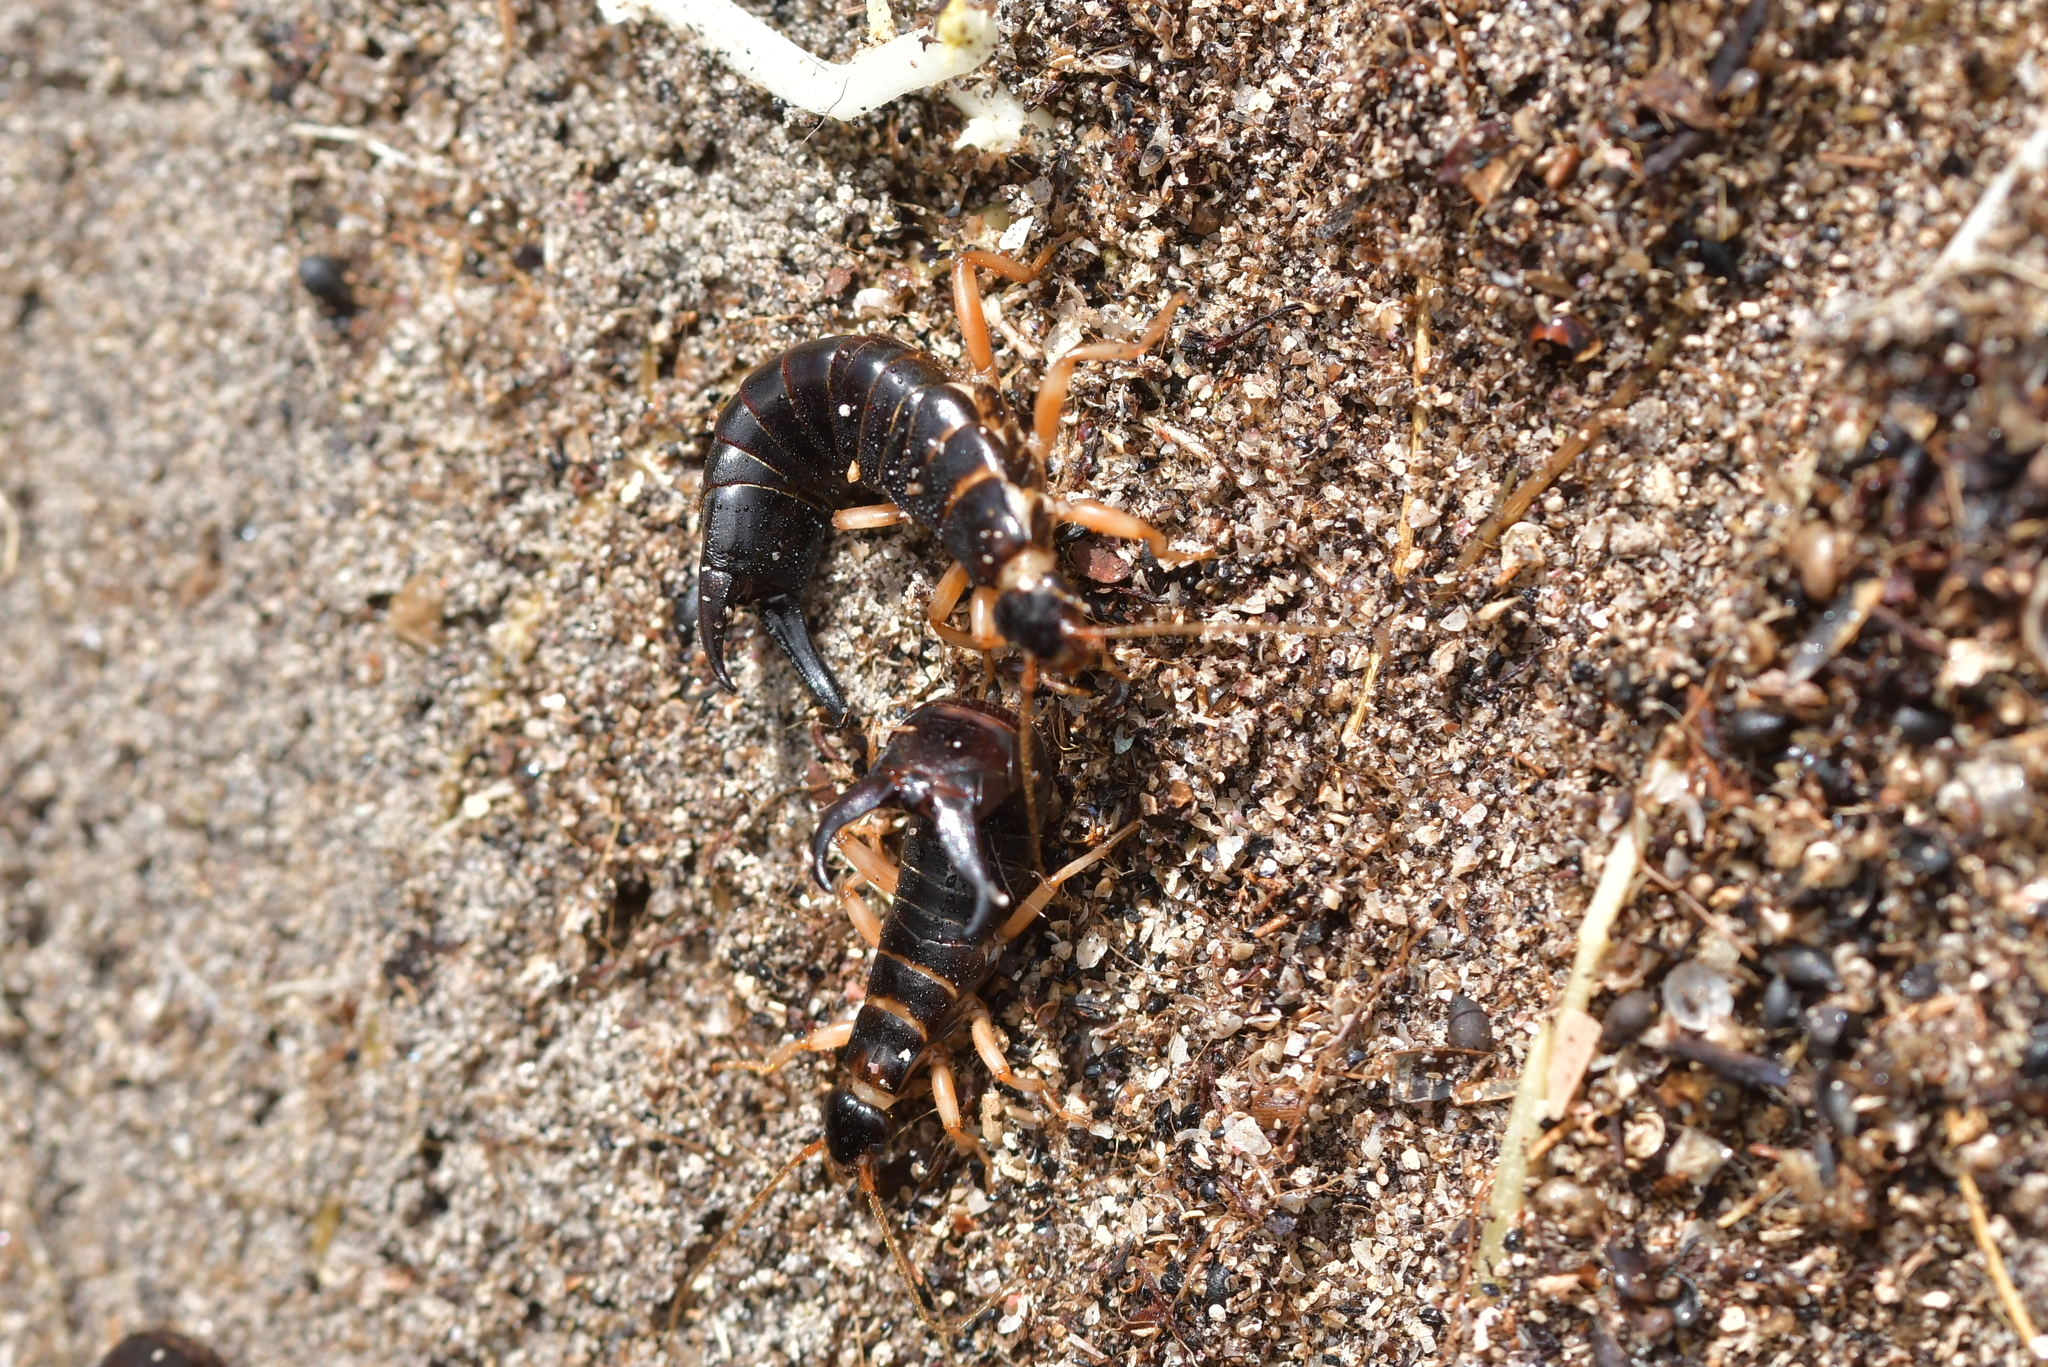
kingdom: Animalia
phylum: Arthropoda
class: Insecta
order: Dermaptera
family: Anisolabididae
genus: Anisolabis
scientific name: Anisolabis littorea
